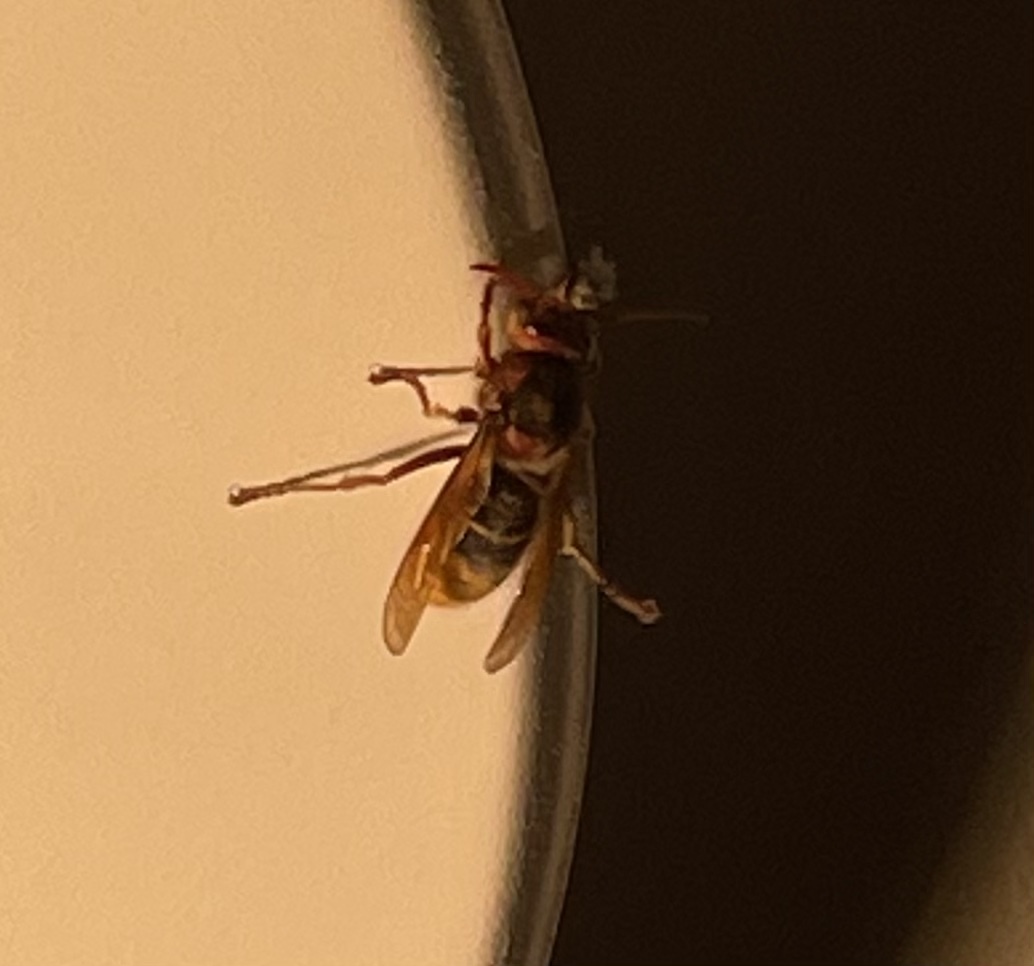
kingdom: Animalia
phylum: Arthropoda
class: Insecta
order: Hymenoptera
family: Vespidae
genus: Vespa
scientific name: Vespa crabro
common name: Hornet
